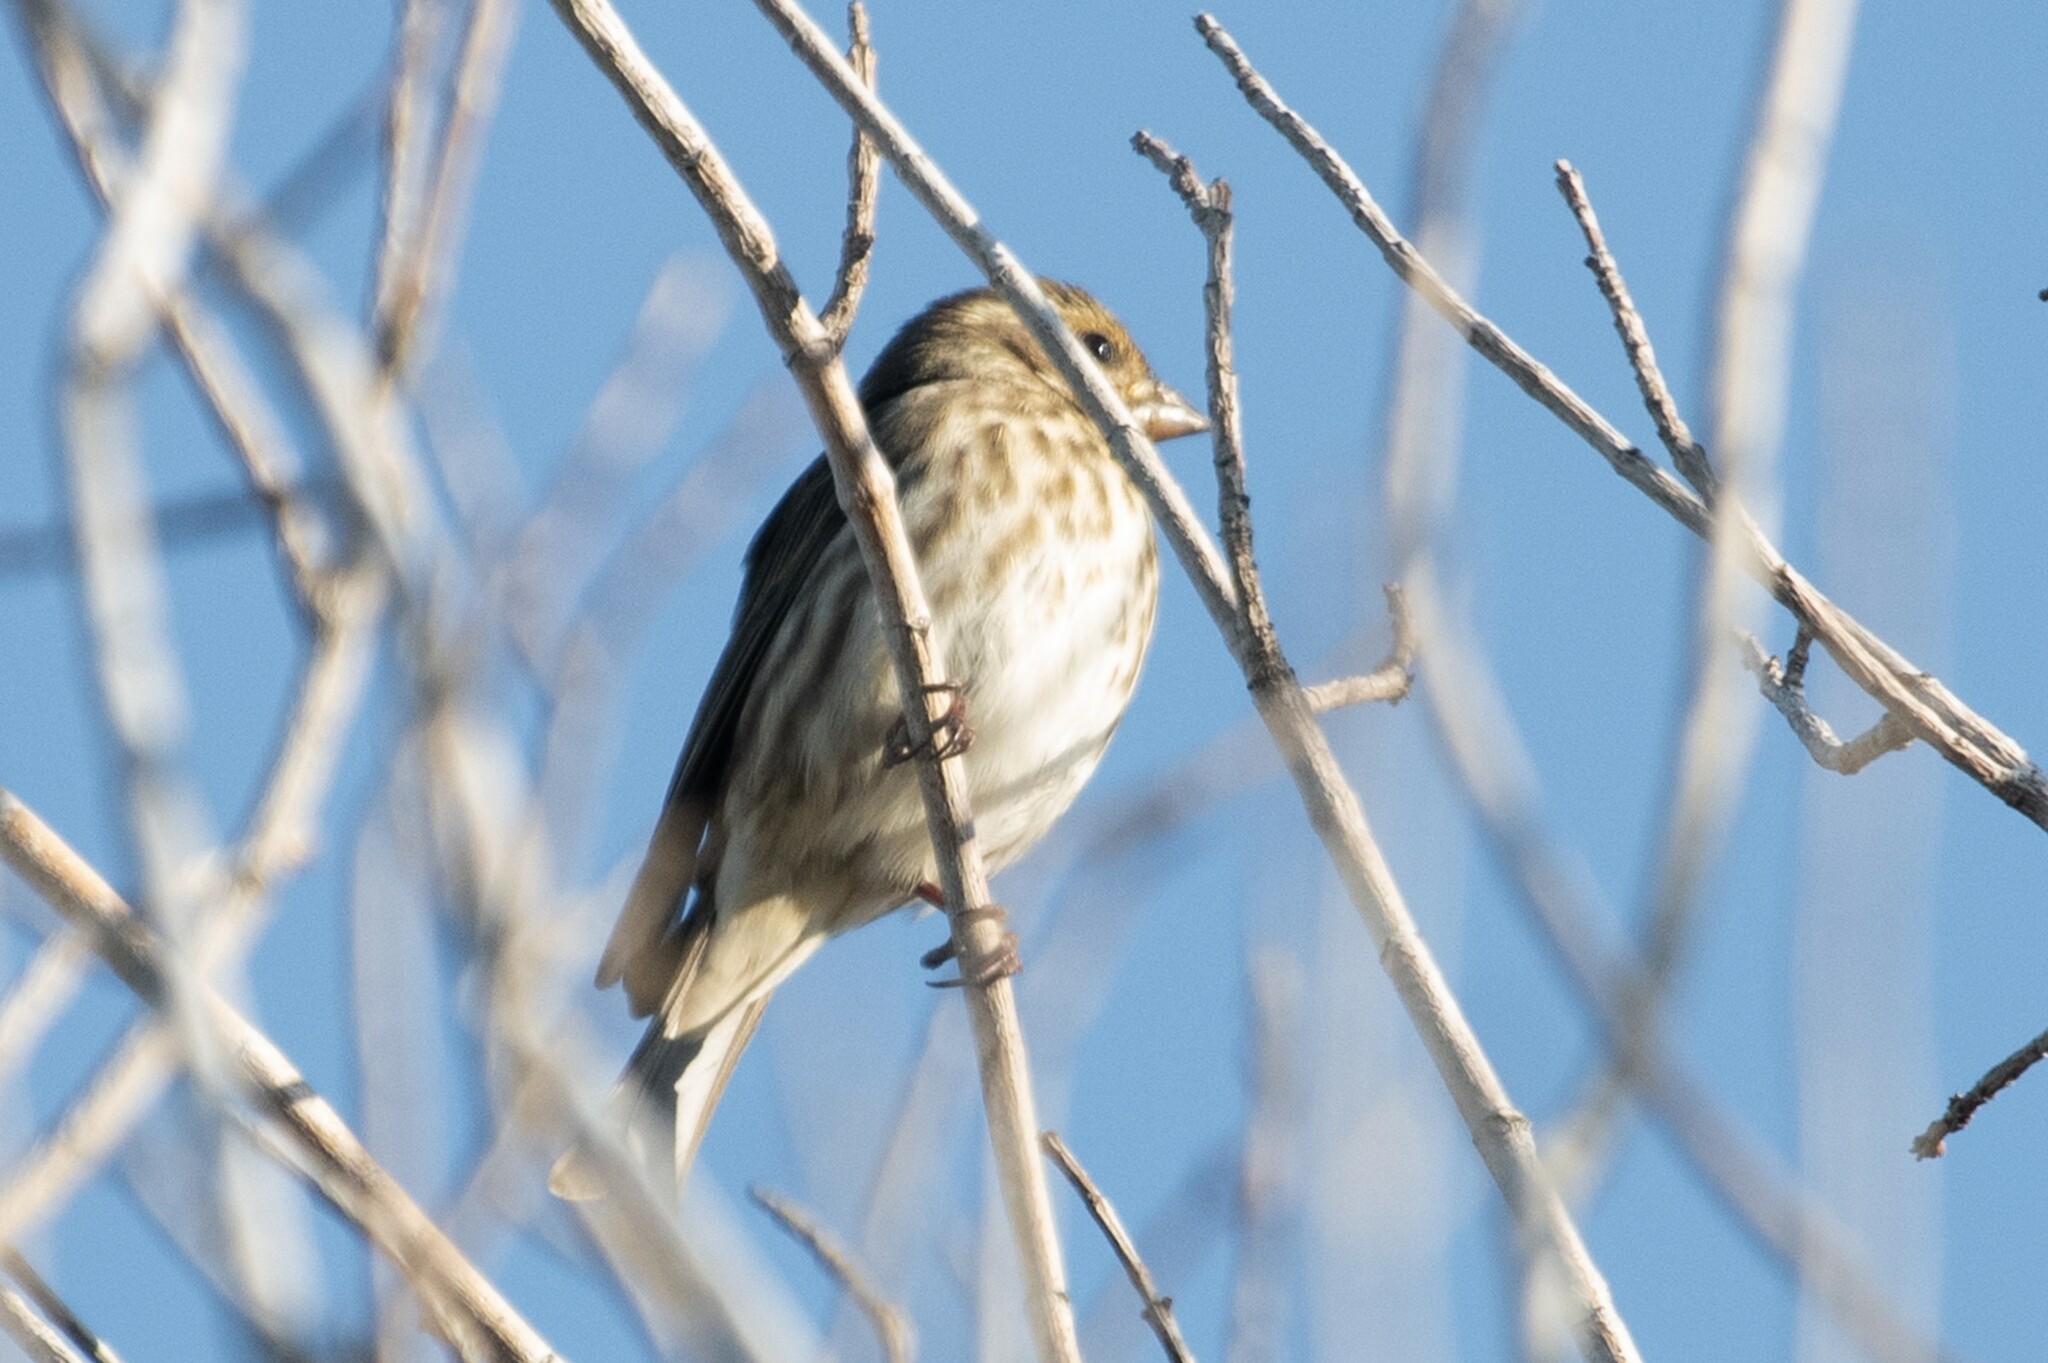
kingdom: Animalia
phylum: Chordata
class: Aves
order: Passeriformes
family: Fringillidae
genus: Haemorhous
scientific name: Haemorhous purpureus
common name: Purple finch
